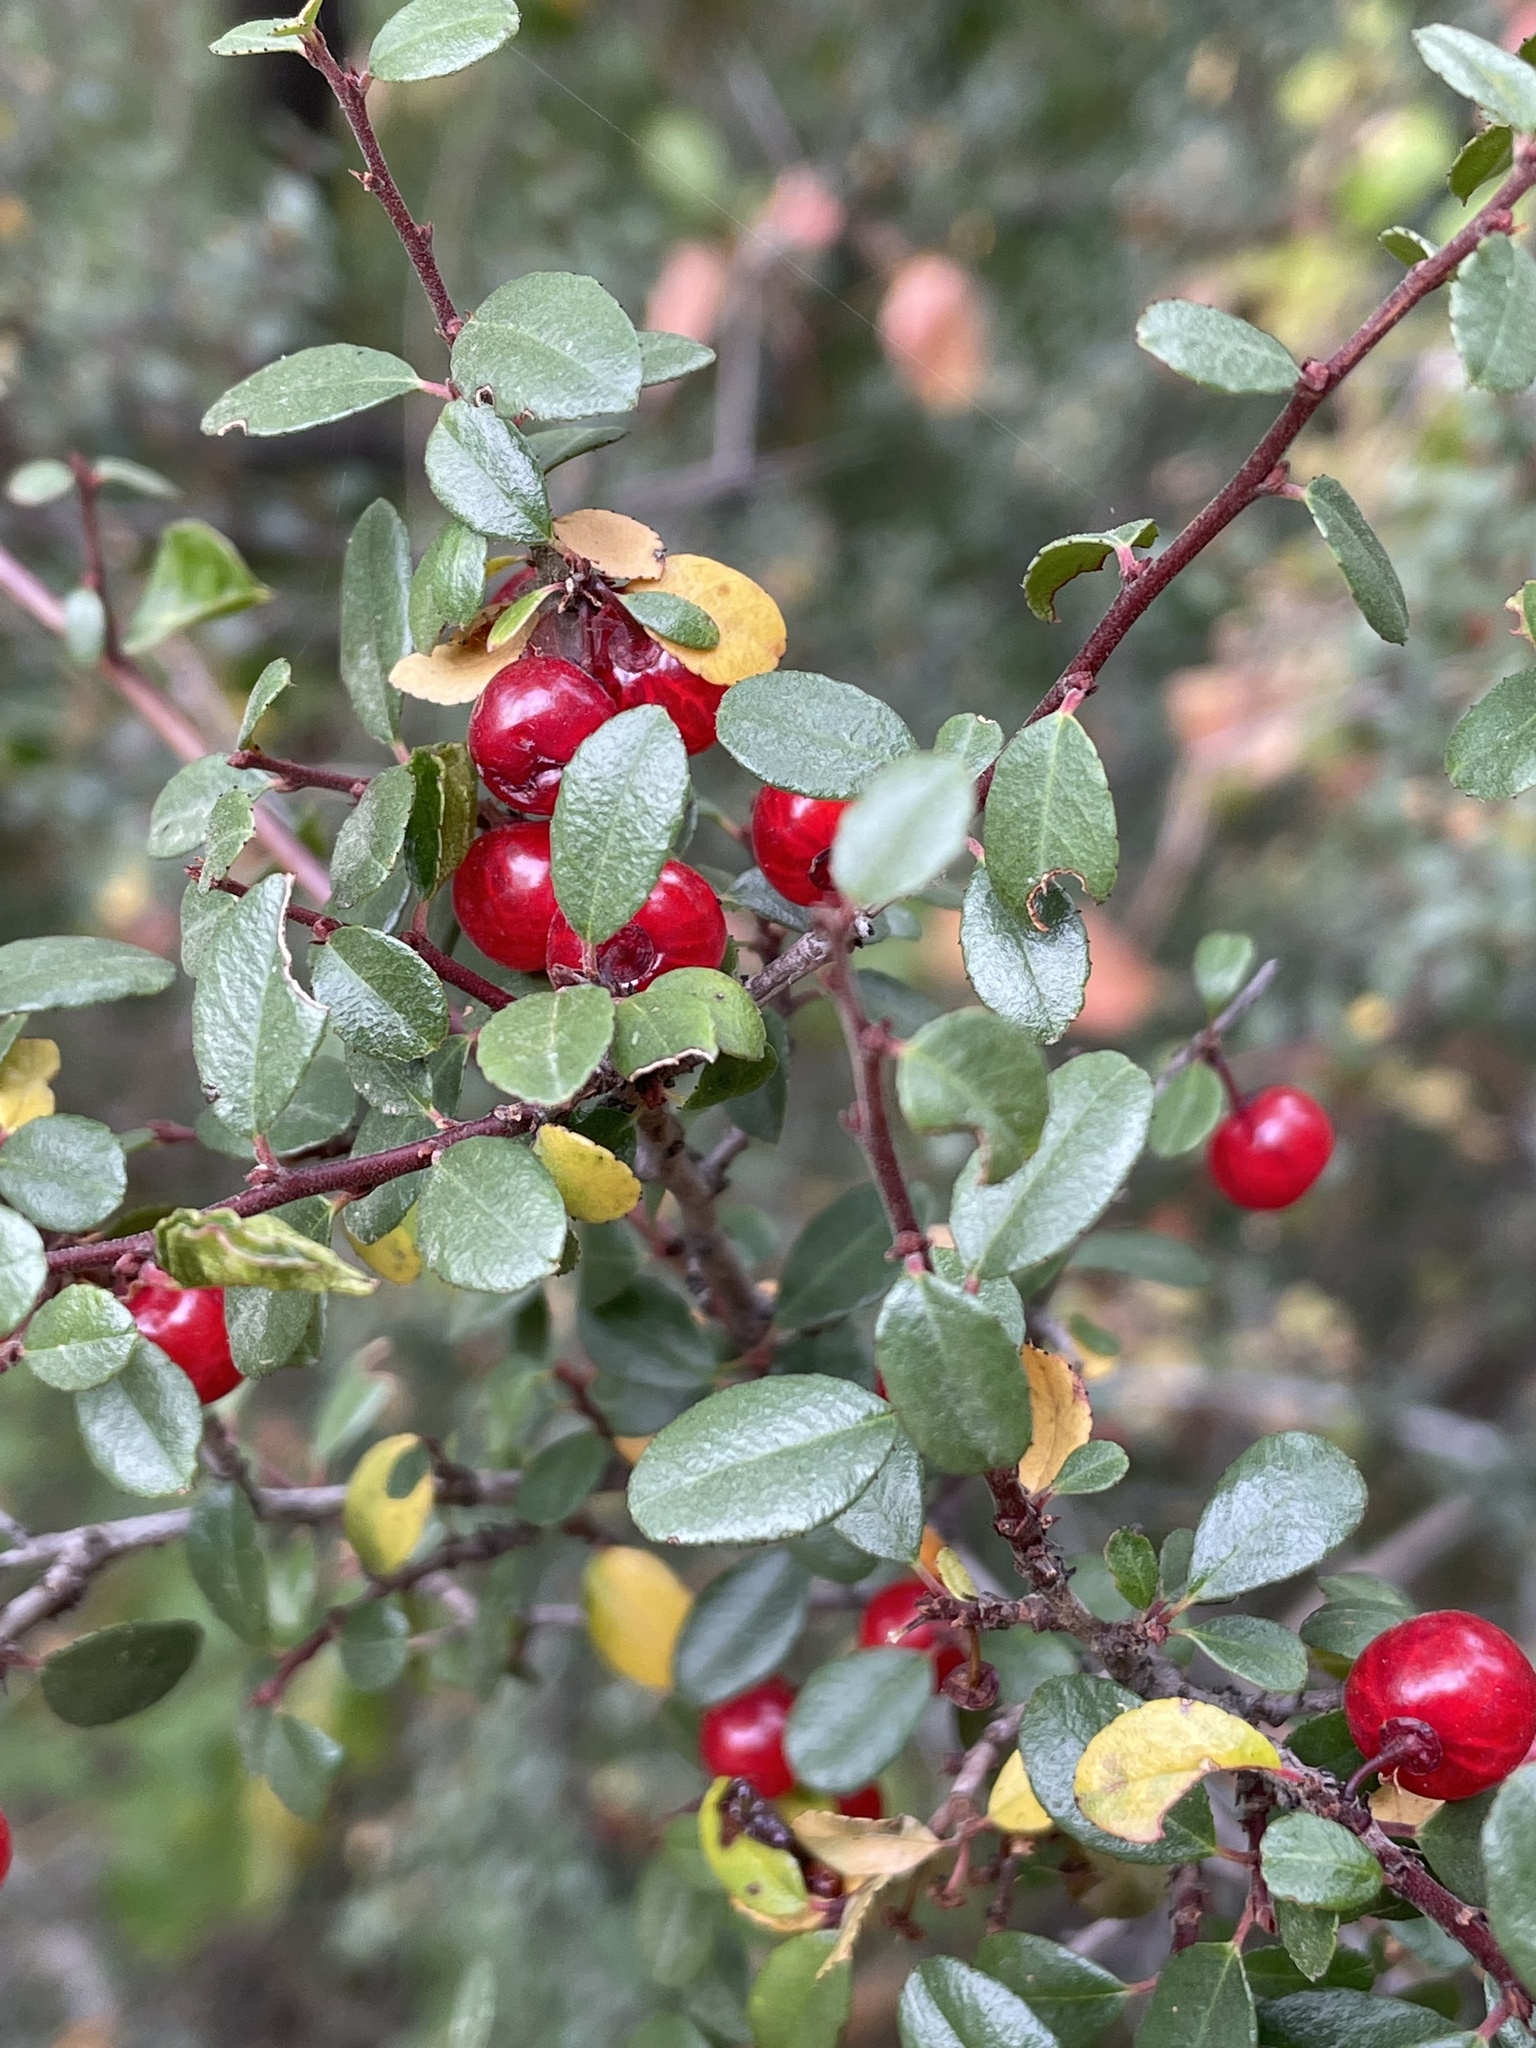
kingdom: Plantae
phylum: Tracheophyta
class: Magnoliopsida
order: Rosales
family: Rhamnaceae
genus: Endotropis
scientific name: Endotropis crocea
